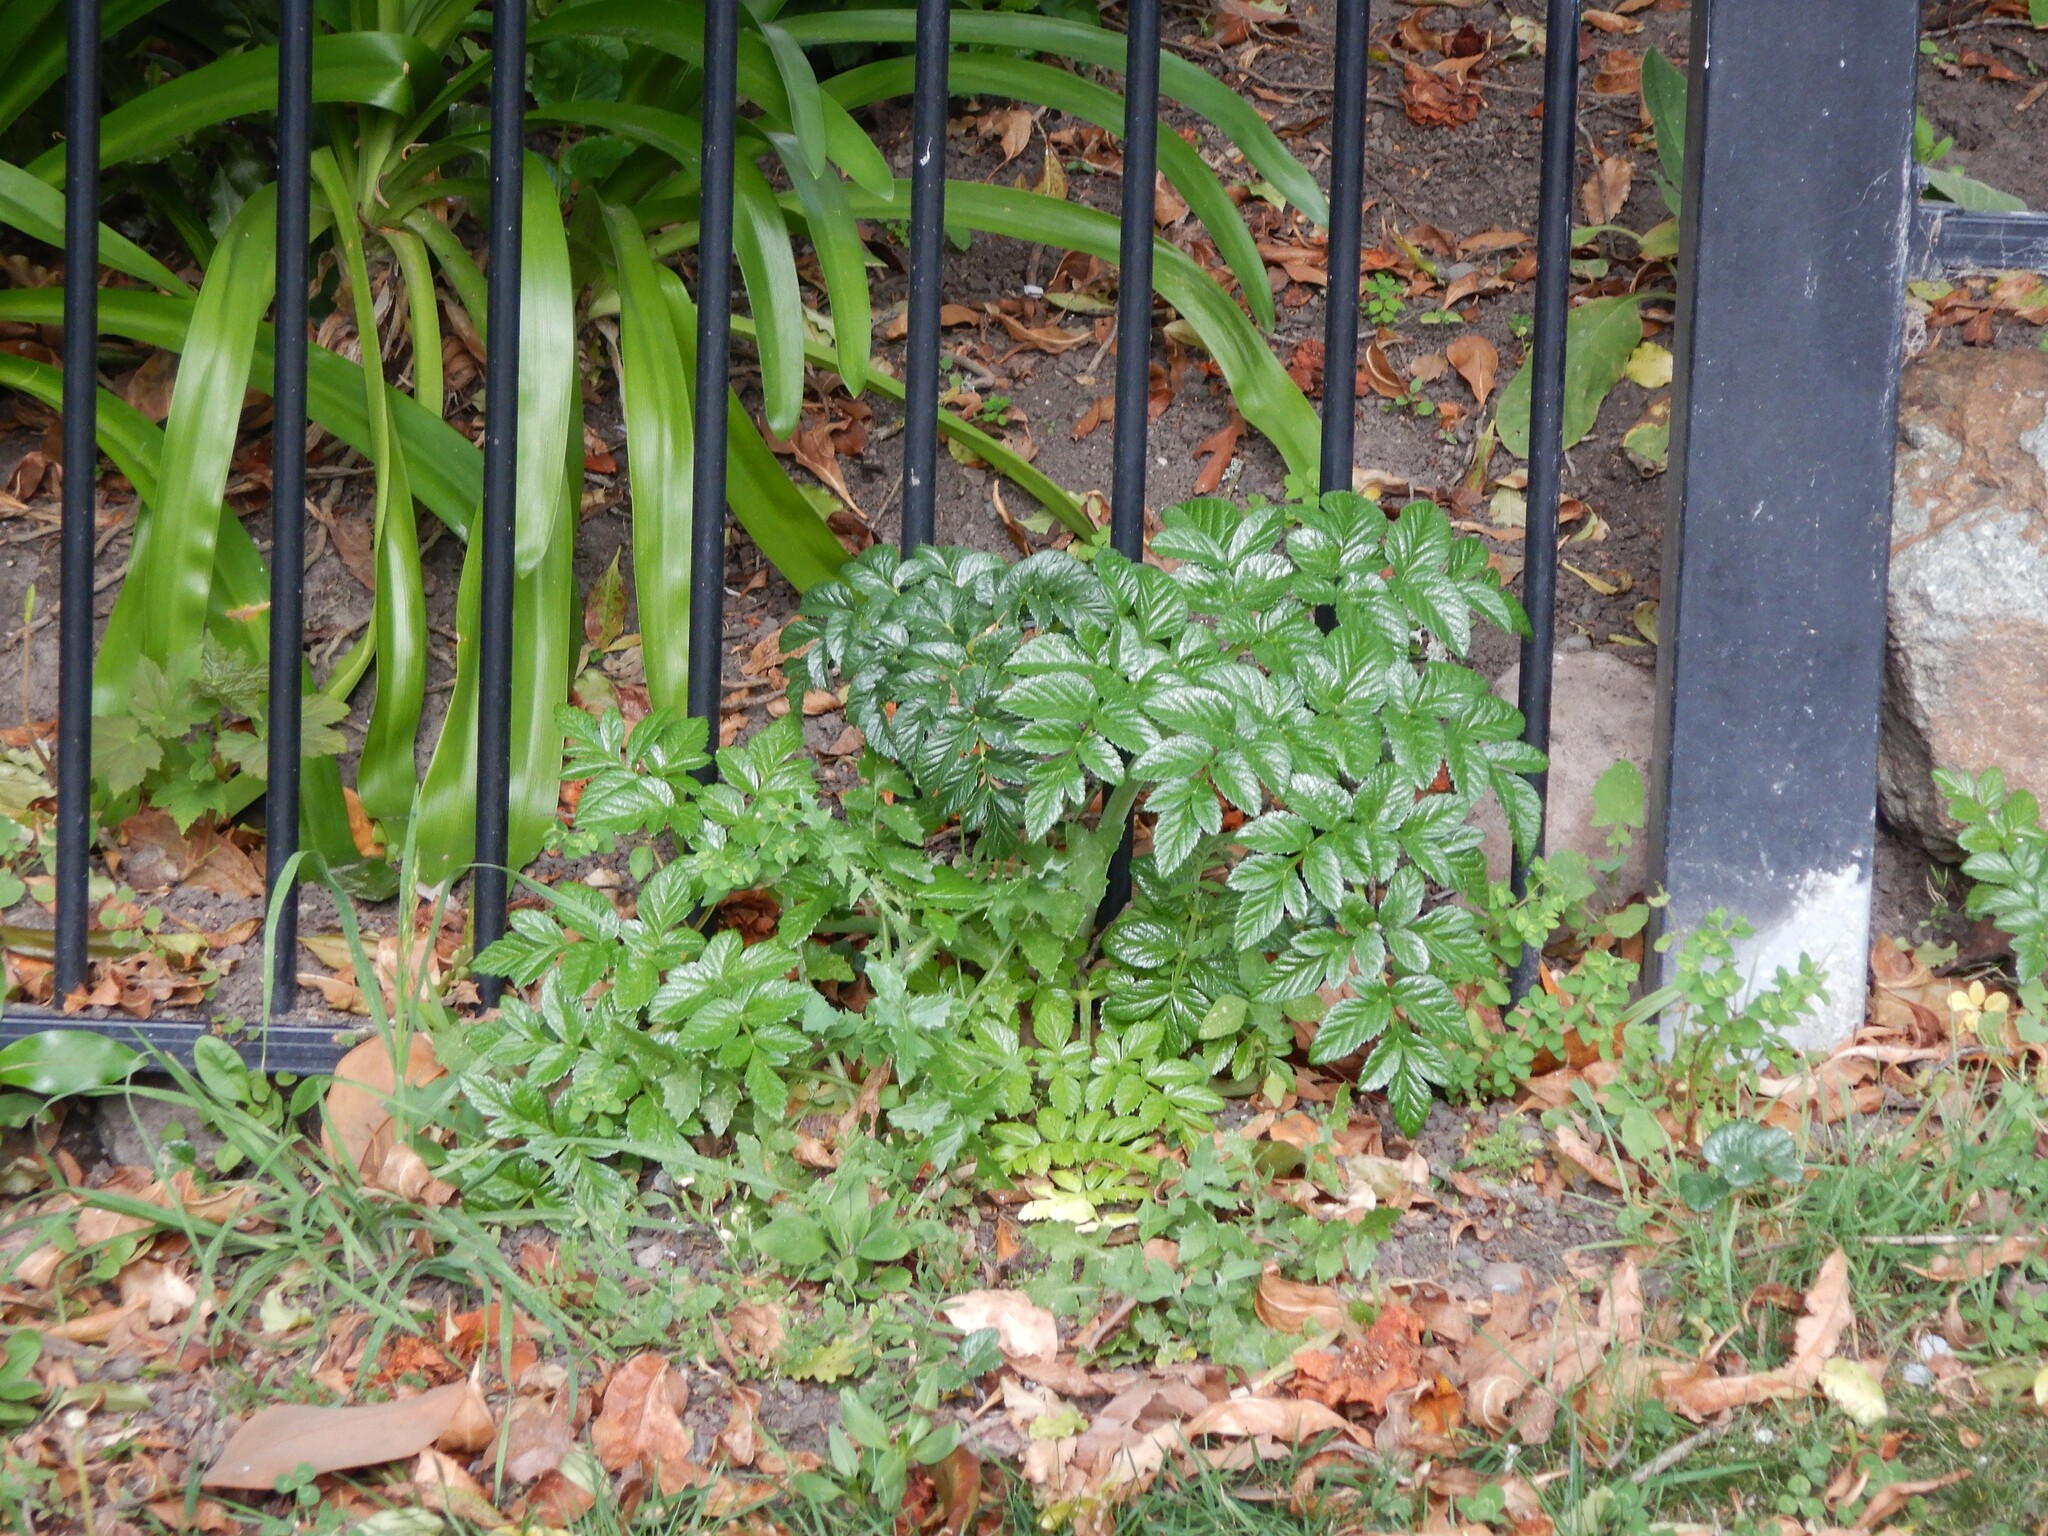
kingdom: Plantae
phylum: Tracheophyta
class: Magnoliopsida
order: Apiales
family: Apiaceae
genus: Angelica
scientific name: Angelica pachycarpa
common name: Portuguese angelica
